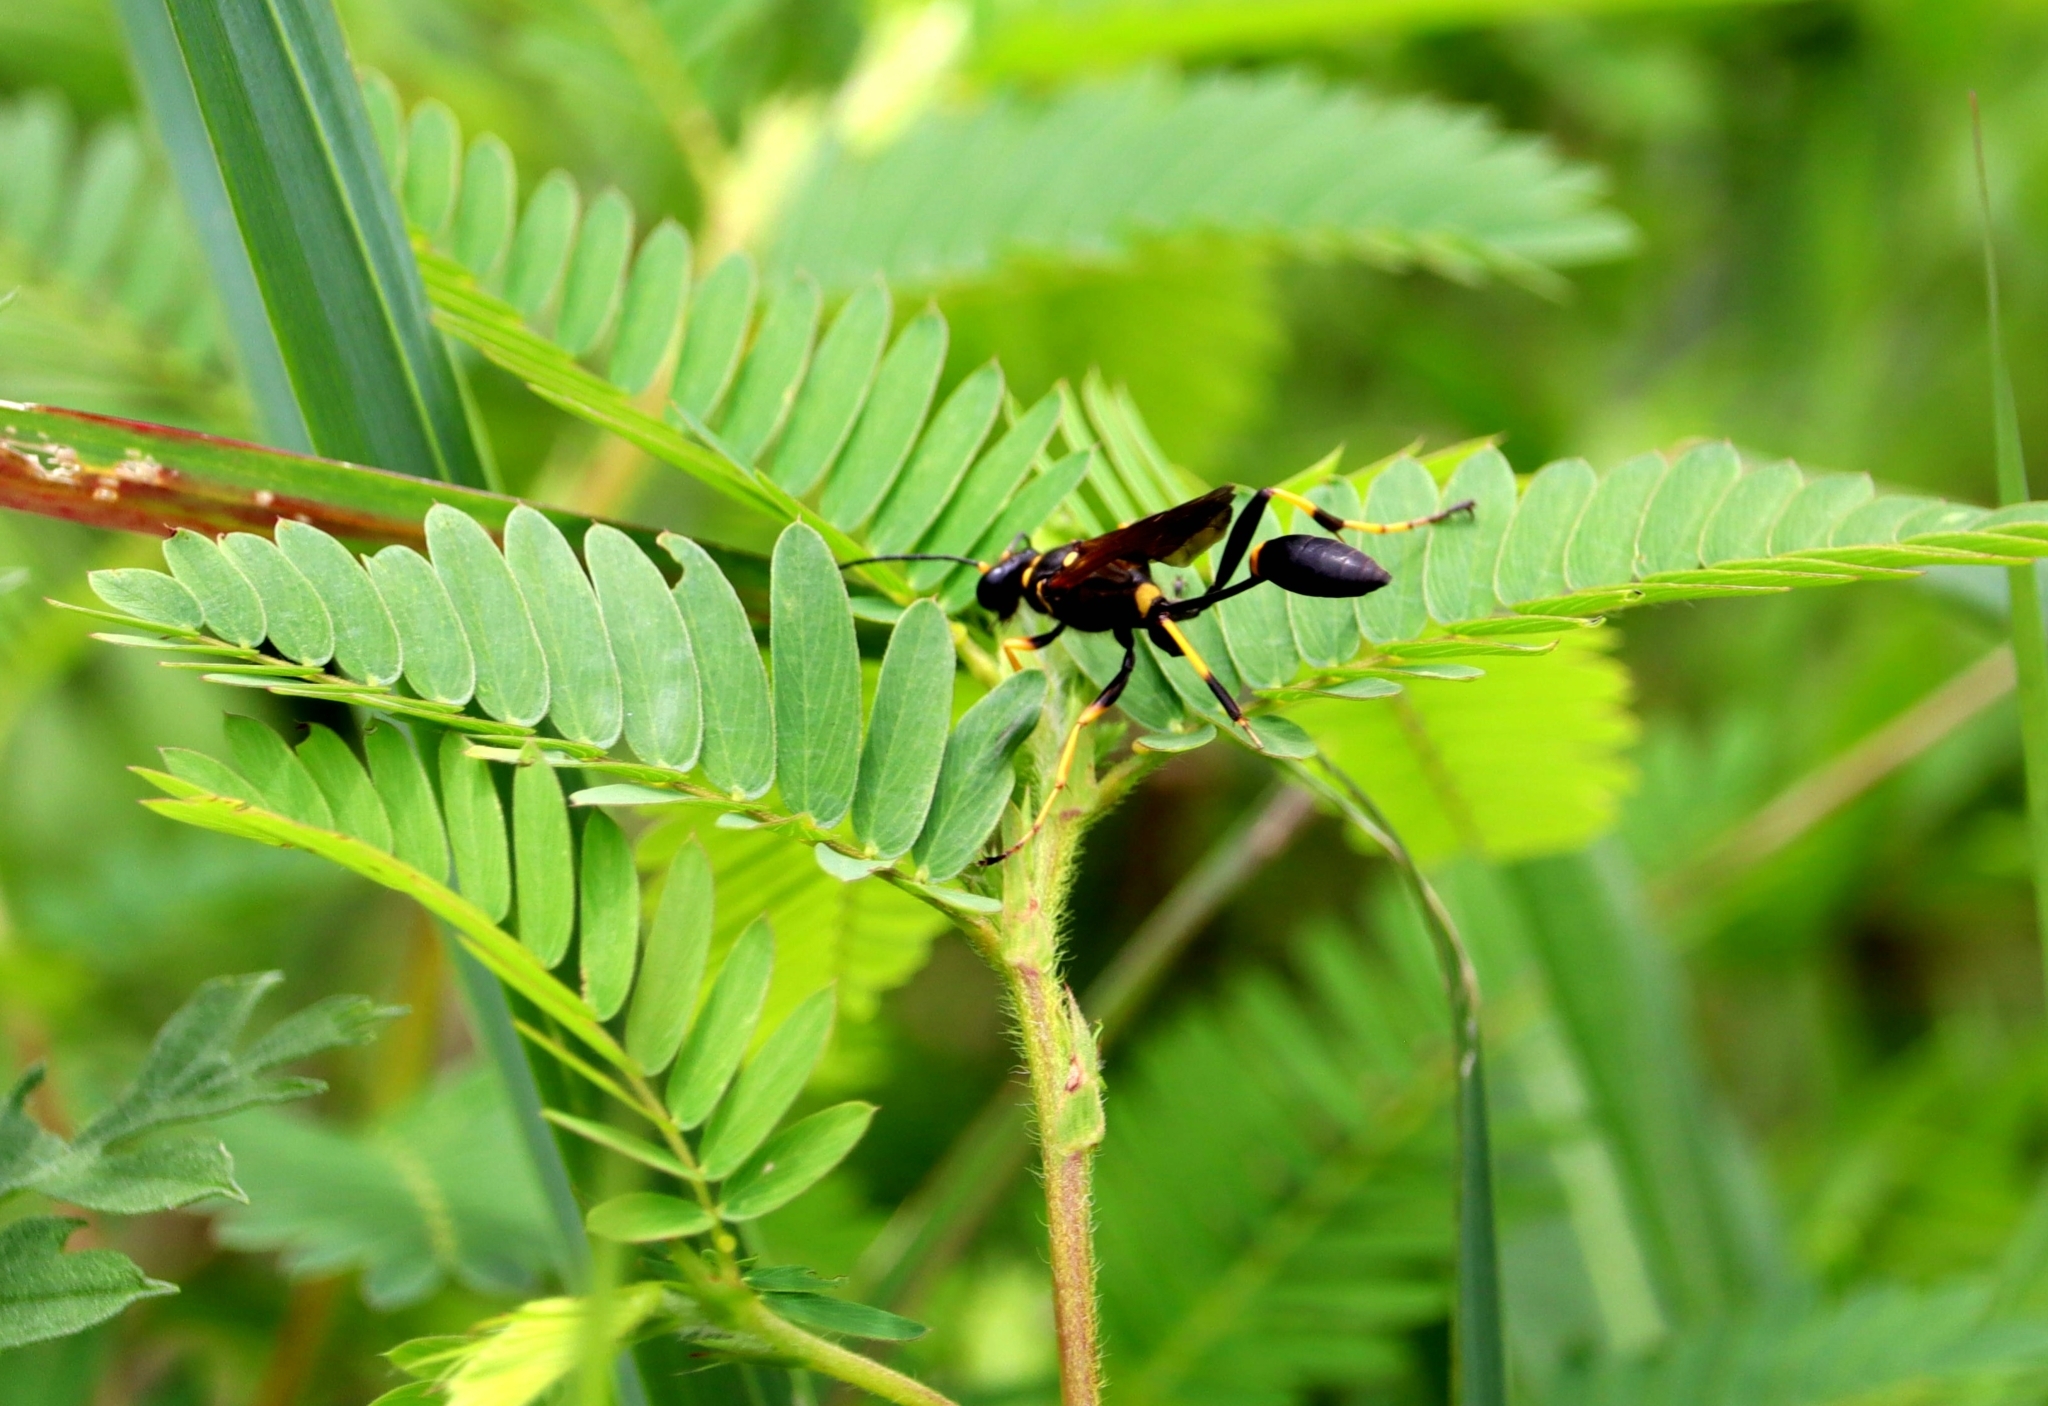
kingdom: Animalia
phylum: Arthropoda
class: Insecta
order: Hymenoptera
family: Sphecidae
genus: Sceliphron
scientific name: Sceliphron caementarium
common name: Mud dauber
